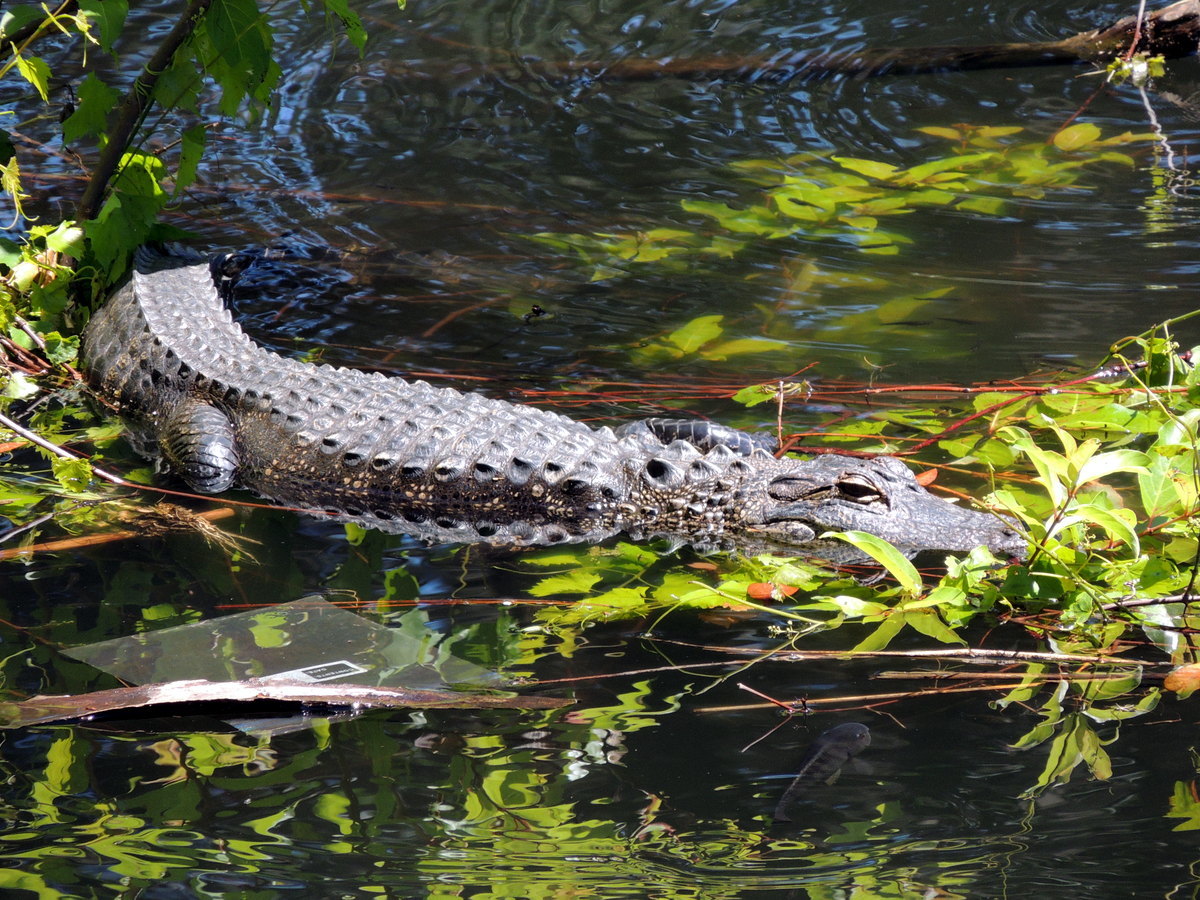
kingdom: Animalia
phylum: Chordata
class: Crocodylia
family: Alligatoridae
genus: Alligator
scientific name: Alligator mississippiensis
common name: American alligator
